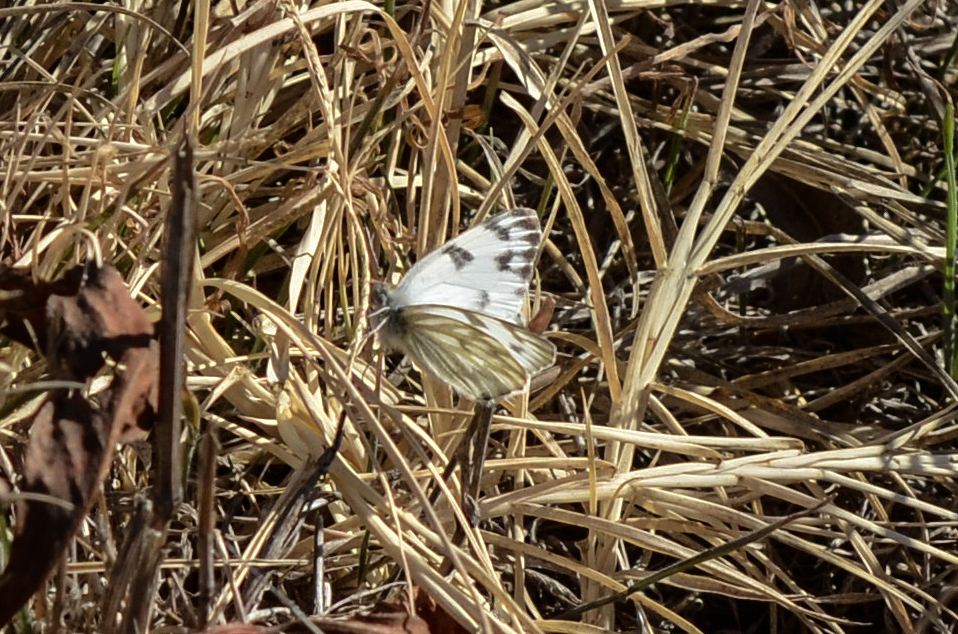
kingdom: Animalia
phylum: Arthropoda
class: Insecta
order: Lepidoptera
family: Pieridae
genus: Pontia
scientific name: Pontia protodice
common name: Checkered white
